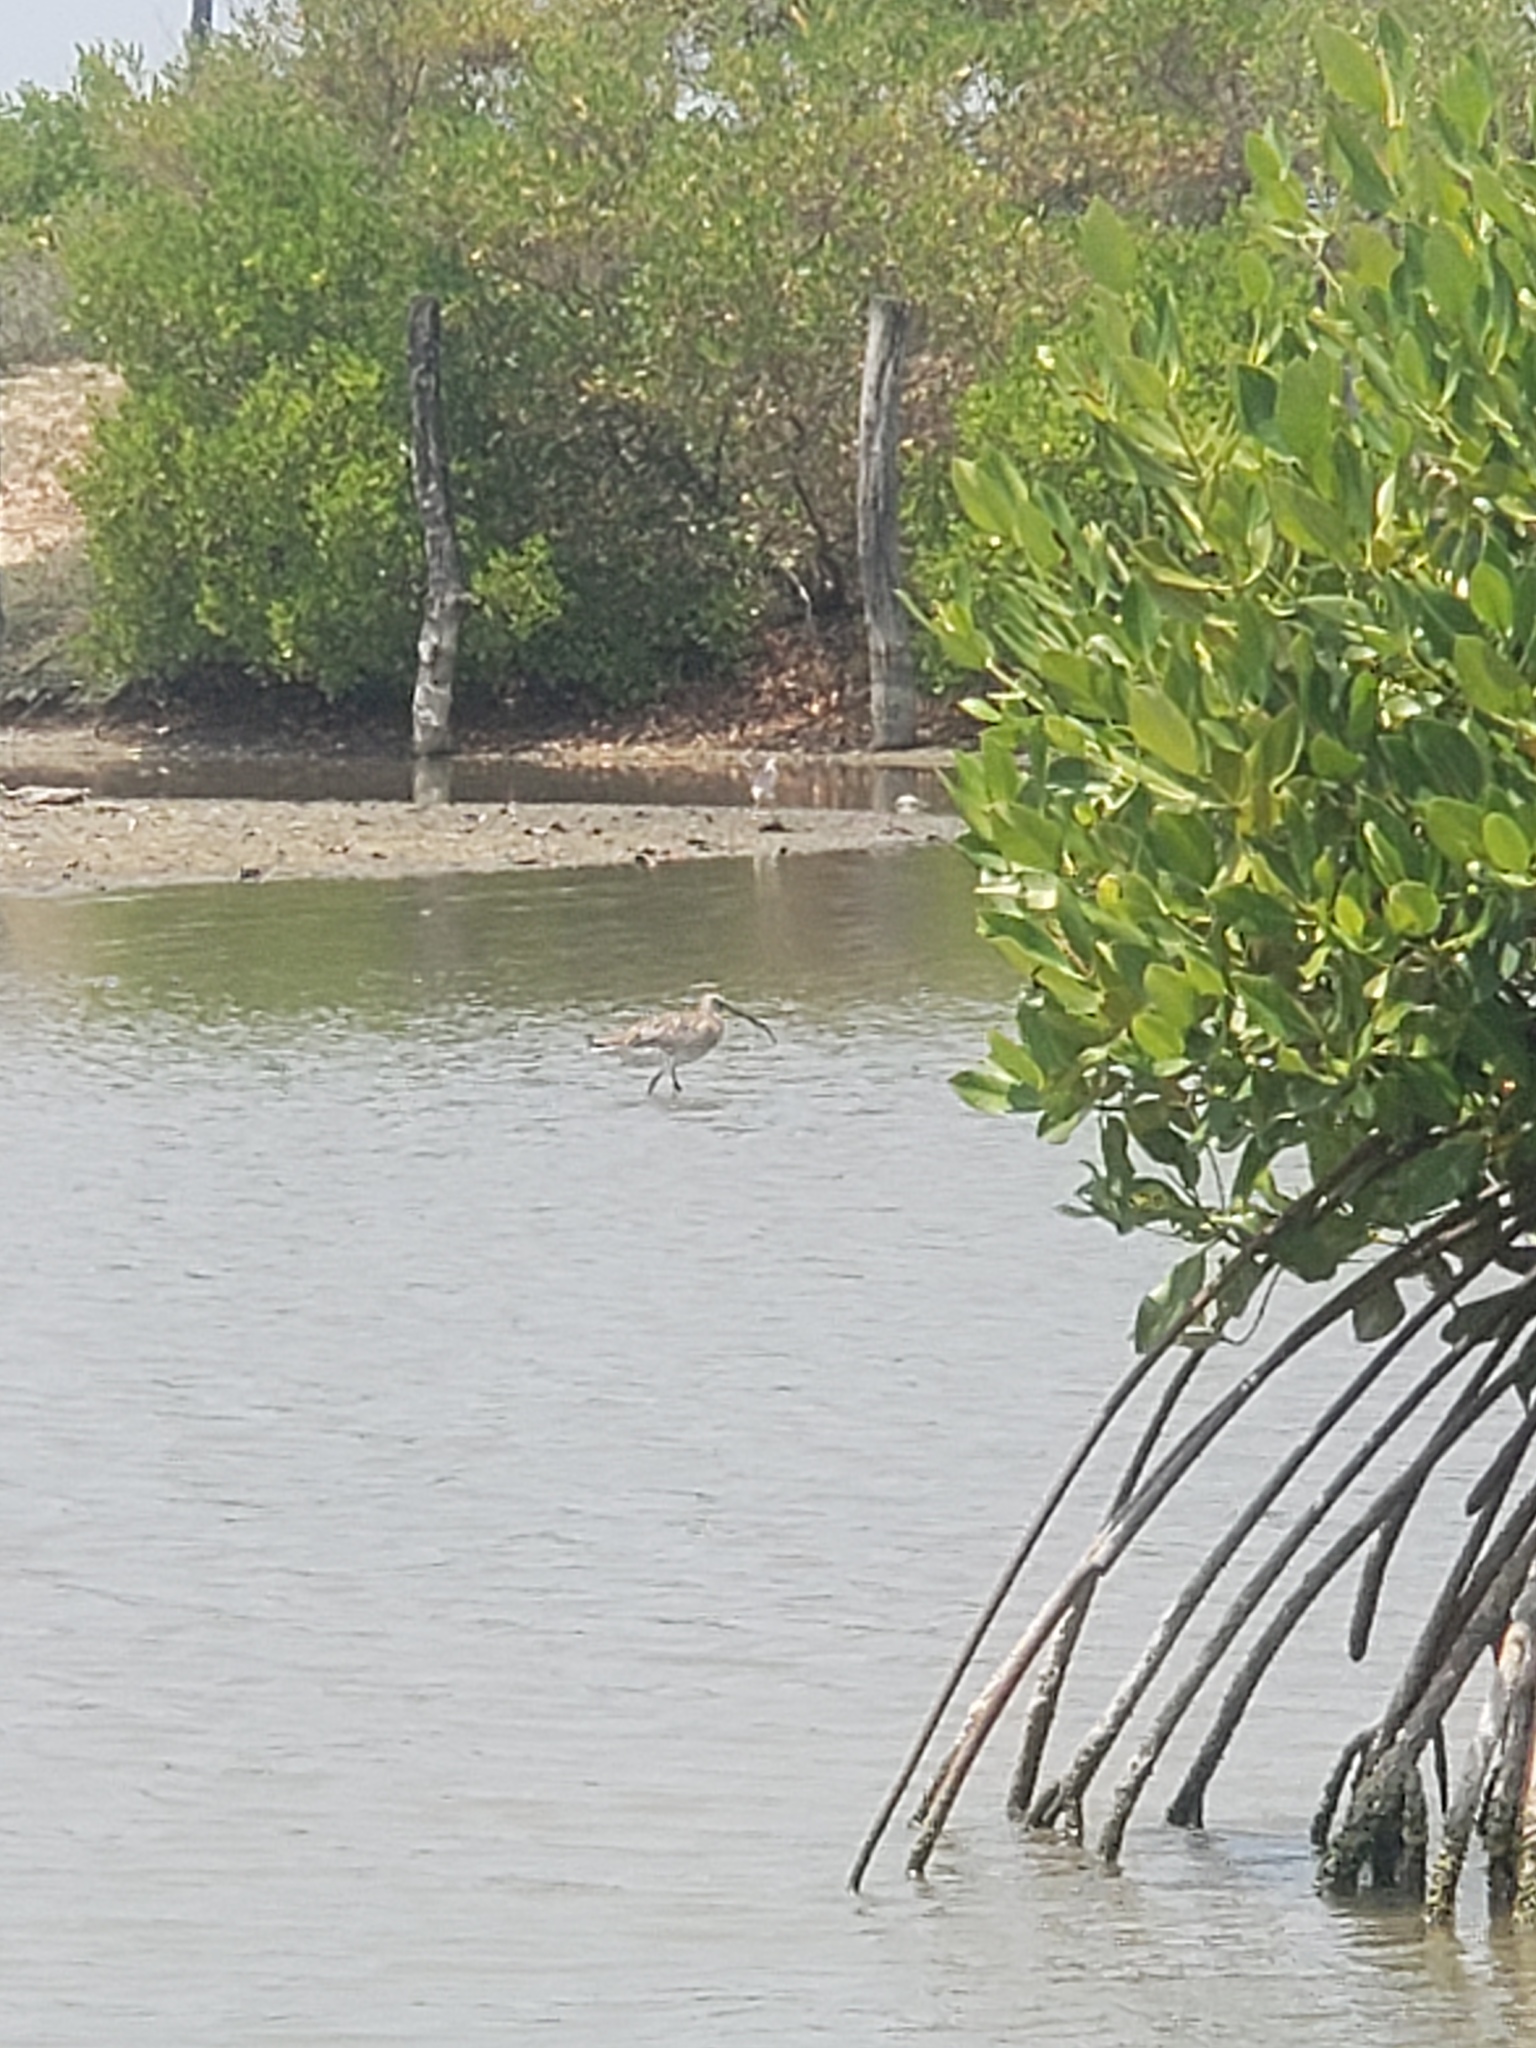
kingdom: Animalia
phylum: Chordata
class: Aves
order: Charadriiformes
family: Scolopacidae
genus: Numenius
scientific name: Numenius arquata
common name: Eurasian curlew
